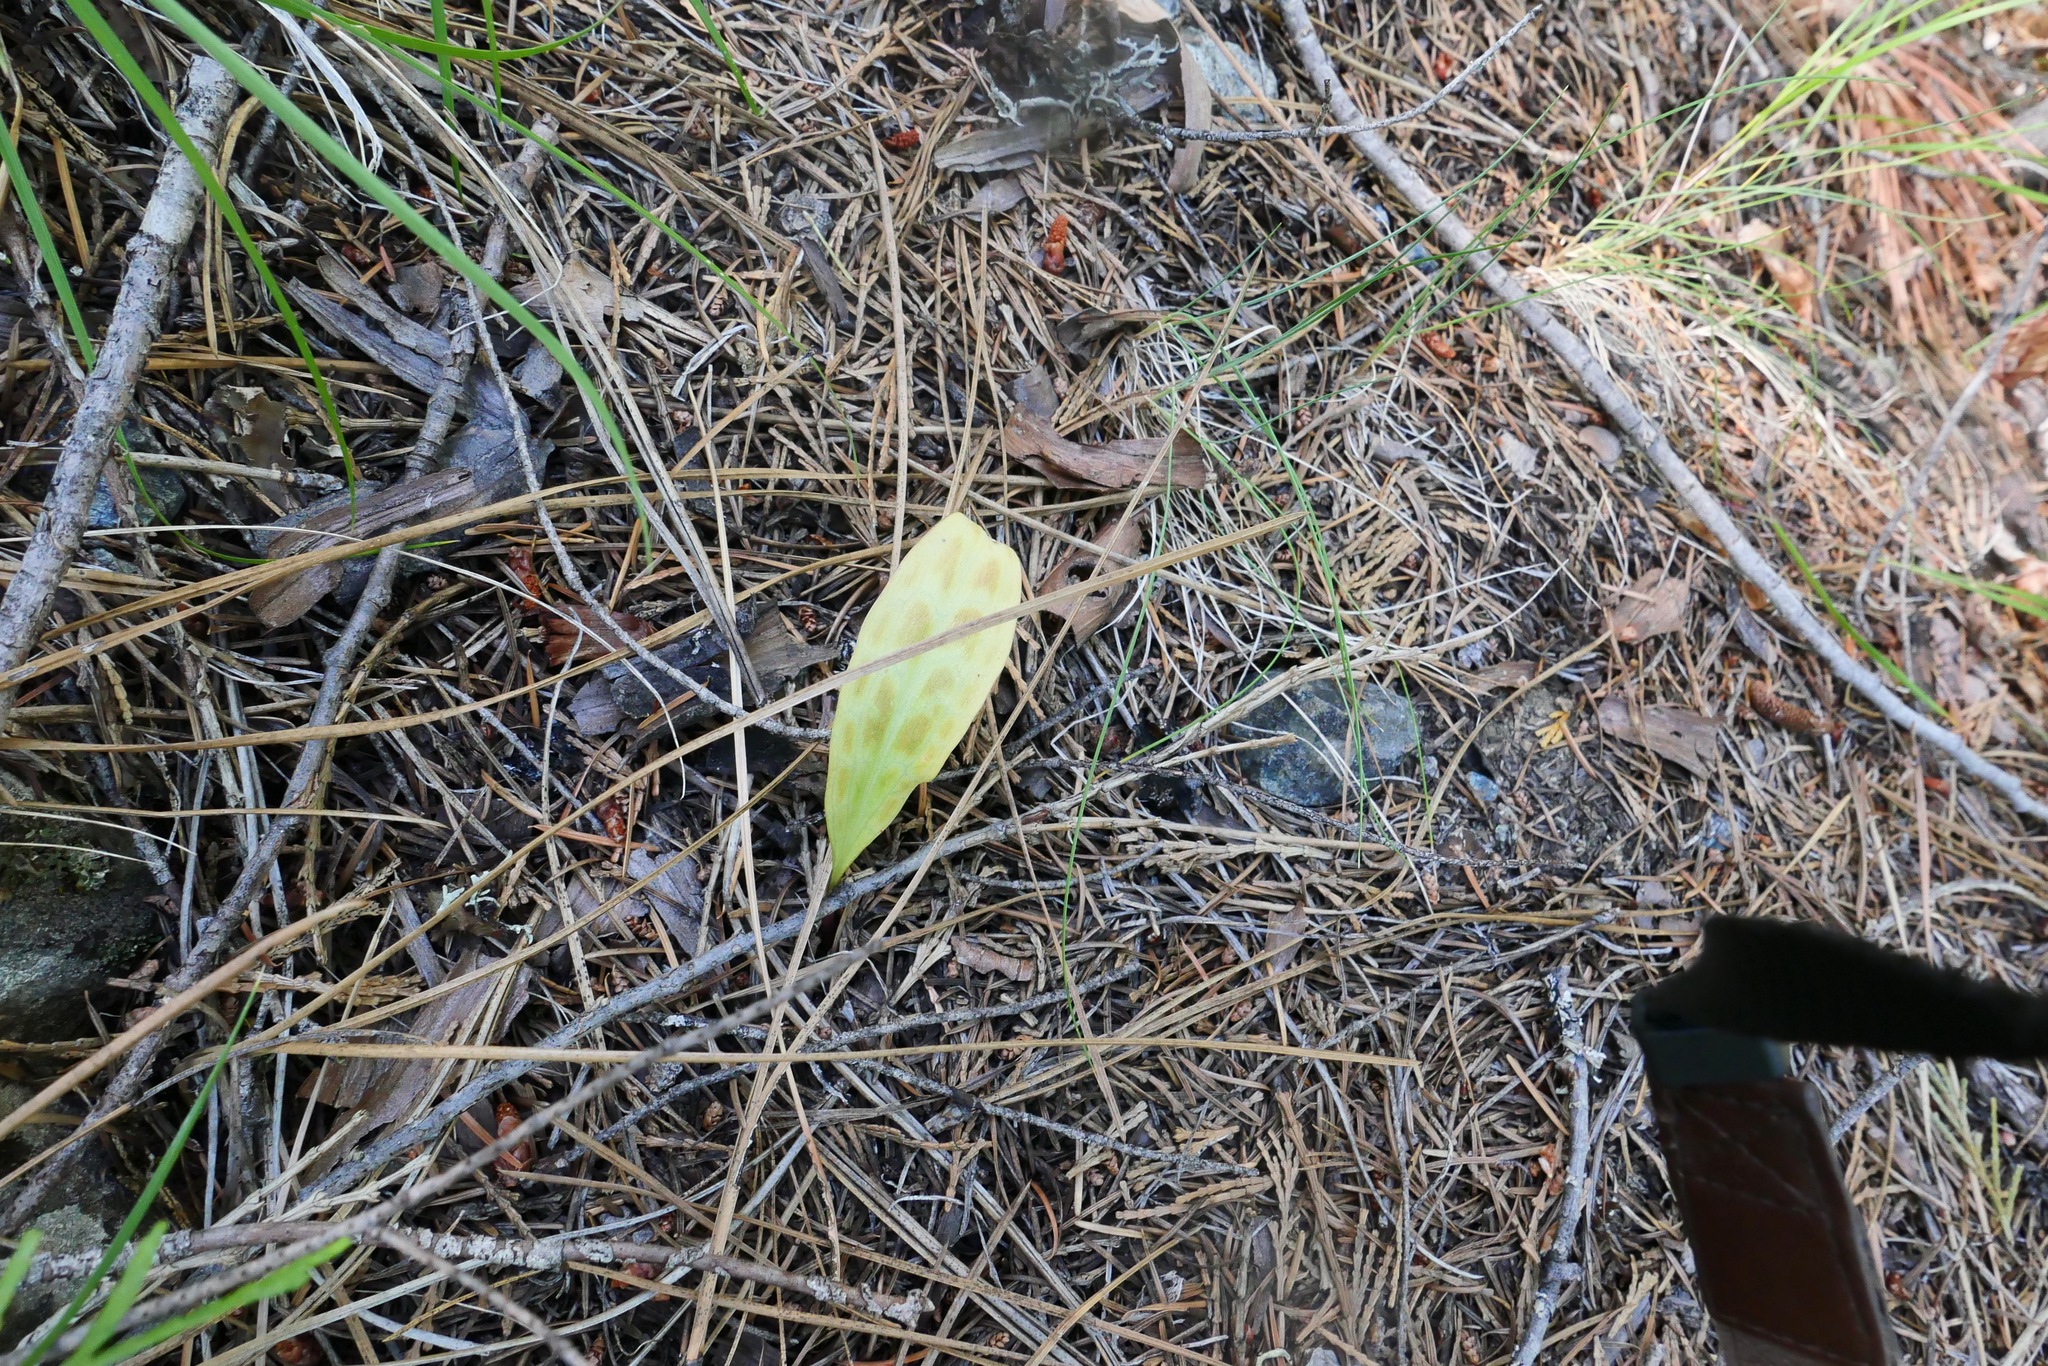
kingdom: Plantae
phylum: Tracheophyta
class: Liliopsida
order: Liliales
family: Liliaceae
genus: Erythronium
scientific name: Erythronium citrinum
